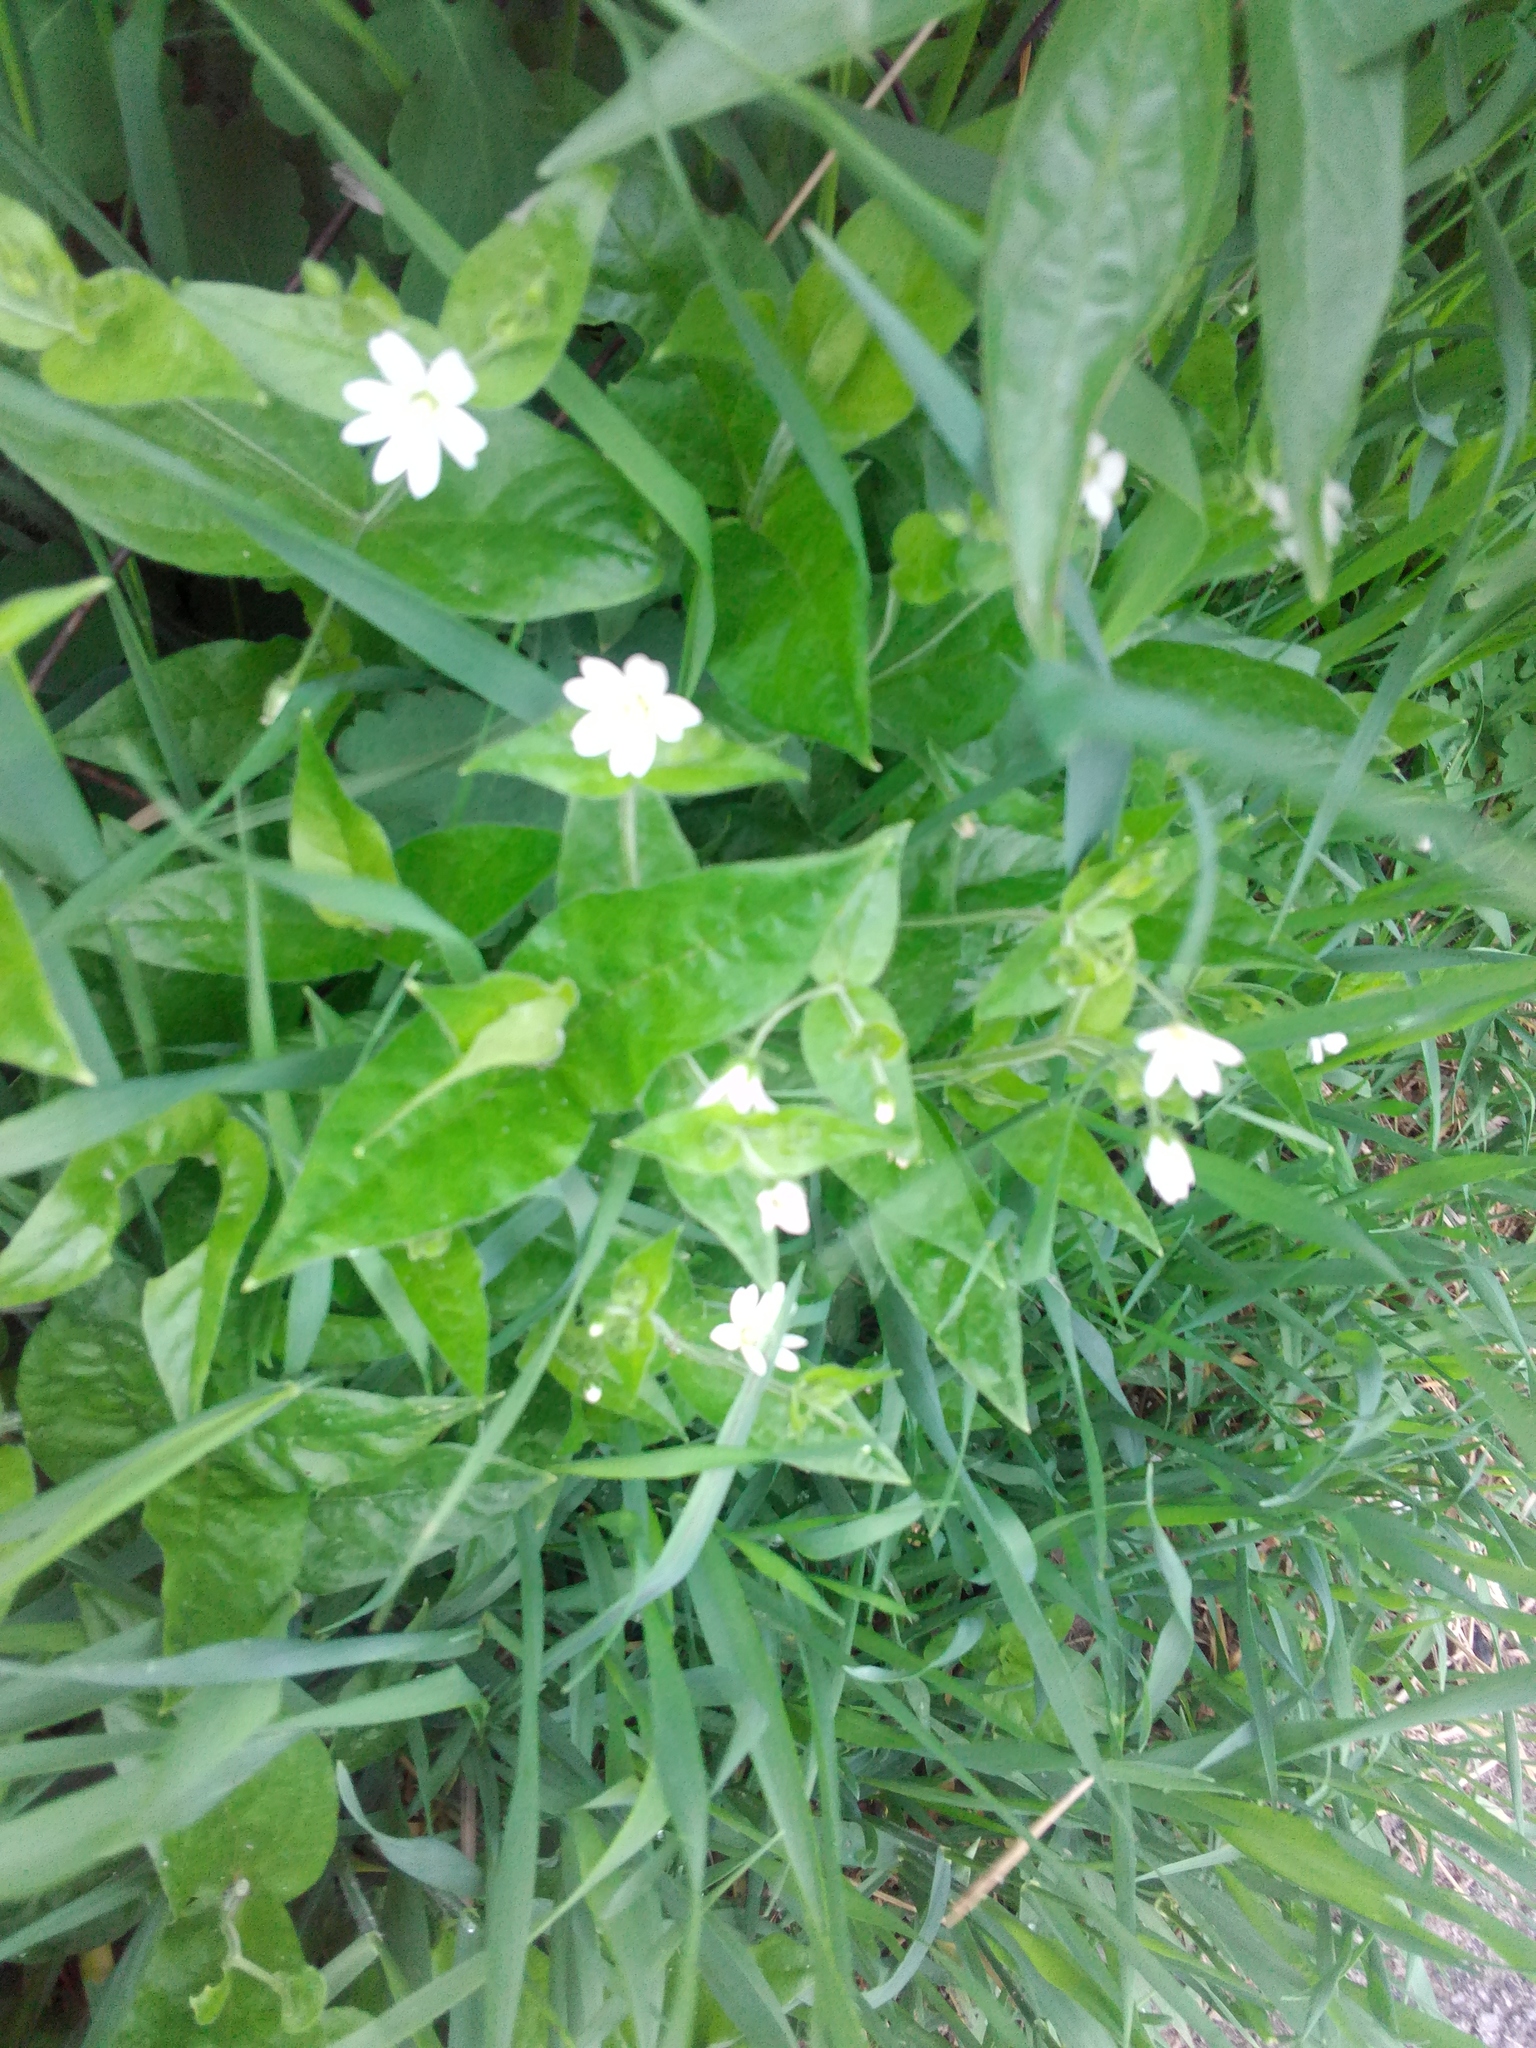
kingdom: Plantae
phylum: Tracheophyta
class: Magnoliopsida
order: Caryophyllales
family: Caryophyllaceae
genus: Stellaria
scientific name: Stellaria bungeana
